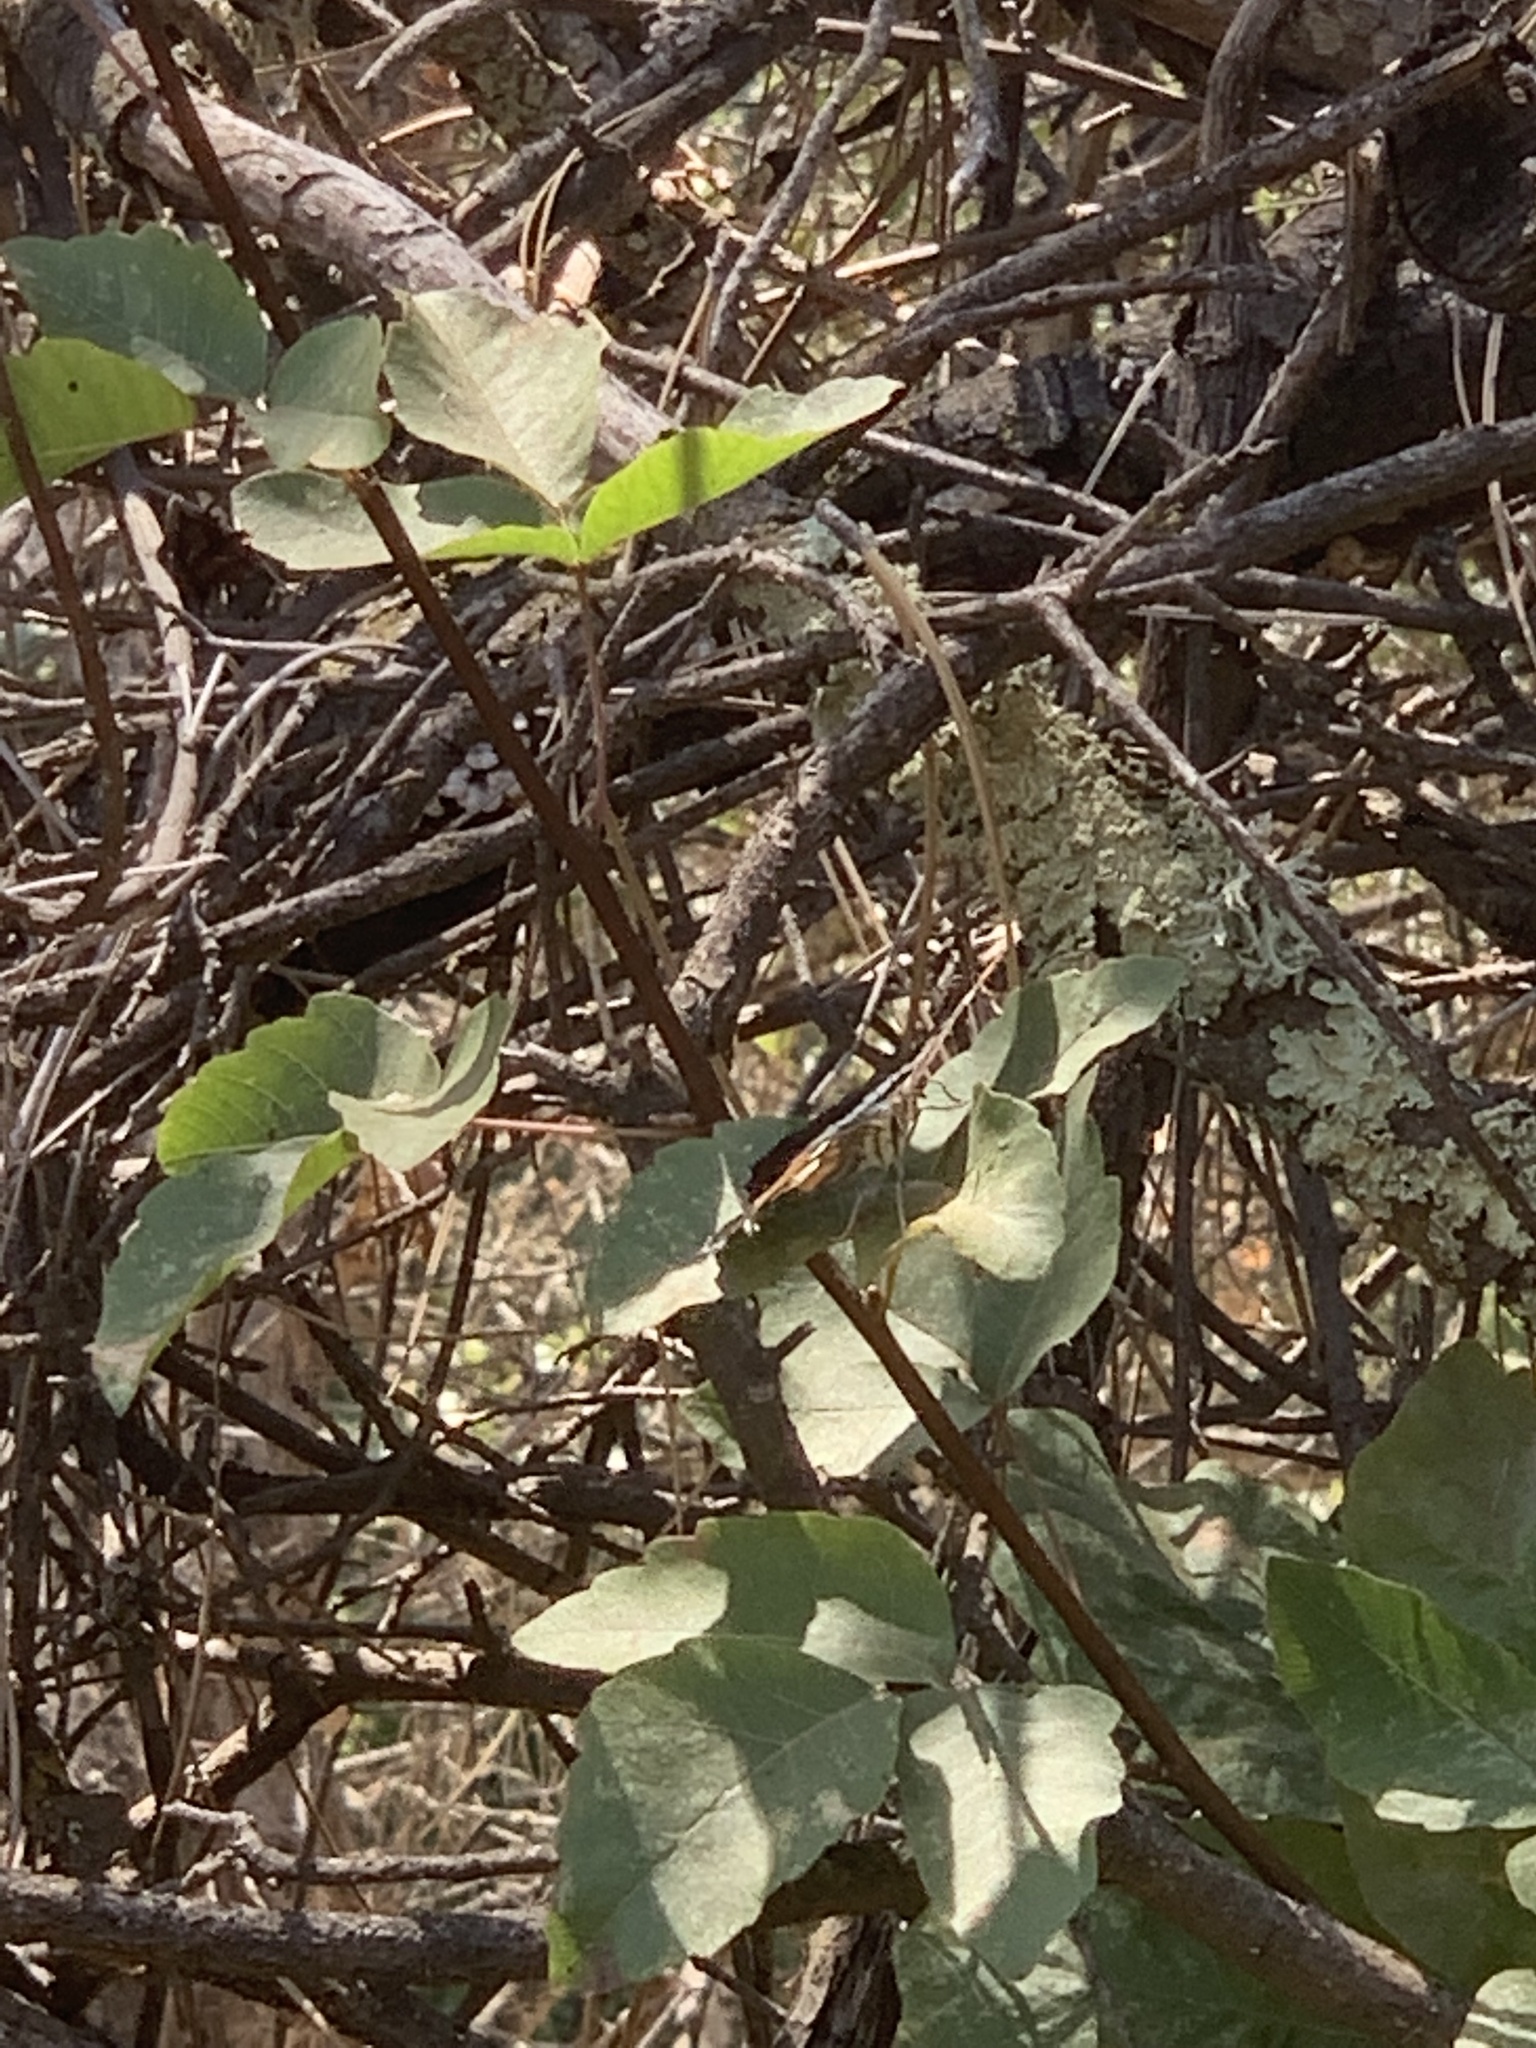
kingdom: Animalia
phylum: Arthropoda
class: Insecta
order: Lepidoptera
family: Nymphalidae
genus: Limenitis
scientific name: Limenitis bredowii
